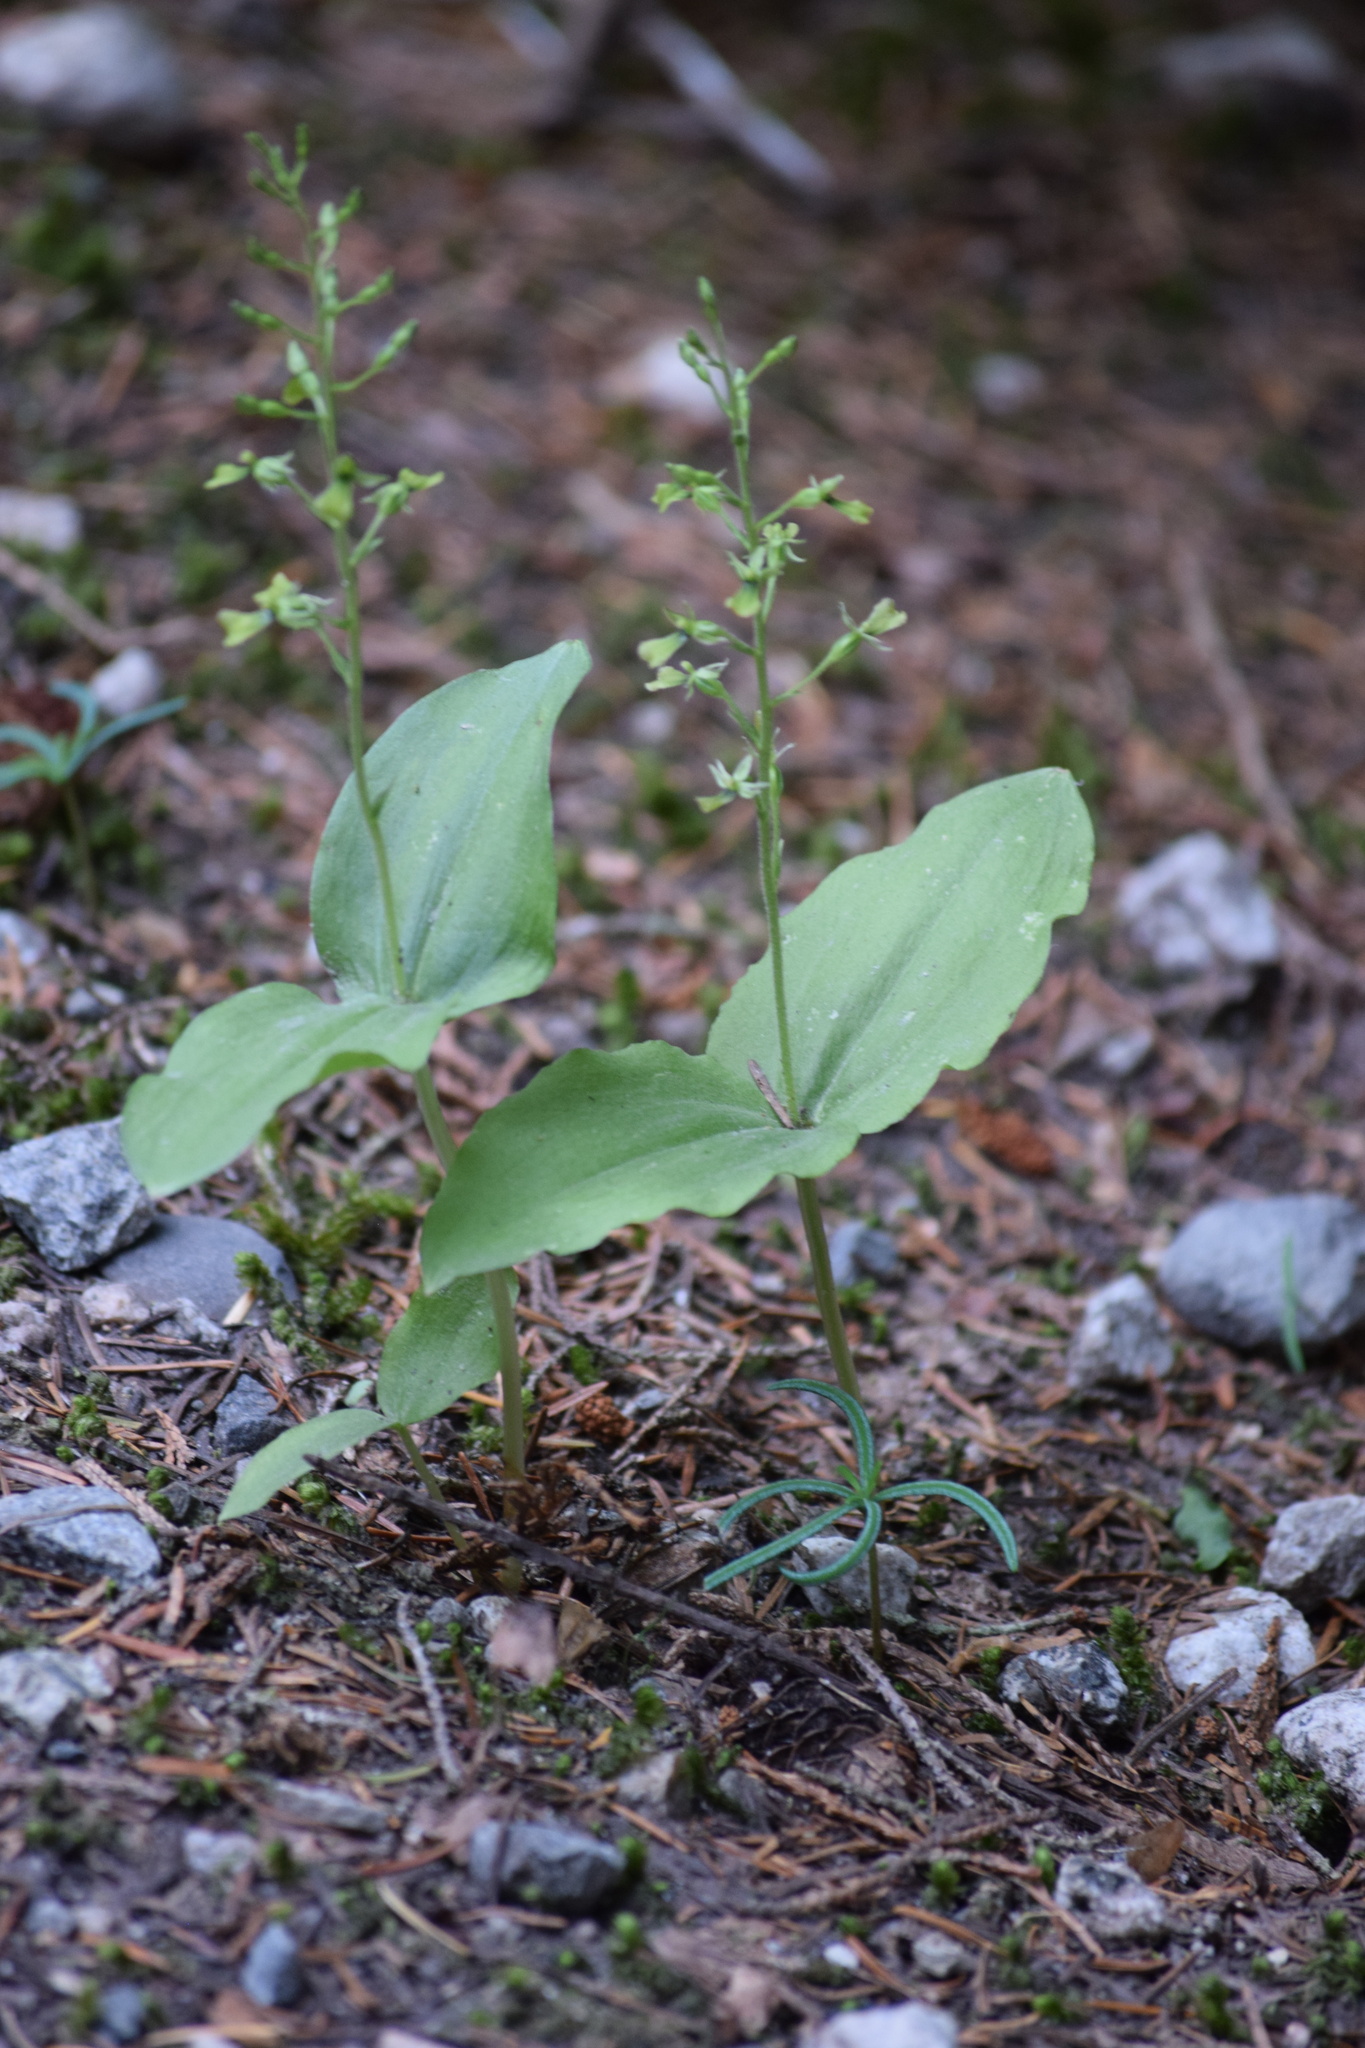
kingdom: Plantae
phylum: Tracheophyta
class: Liliopsida
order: Asparagales
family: Orchidaceae
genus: Neottia
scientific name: Neottia banksiana
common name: Northwestern twayblade
